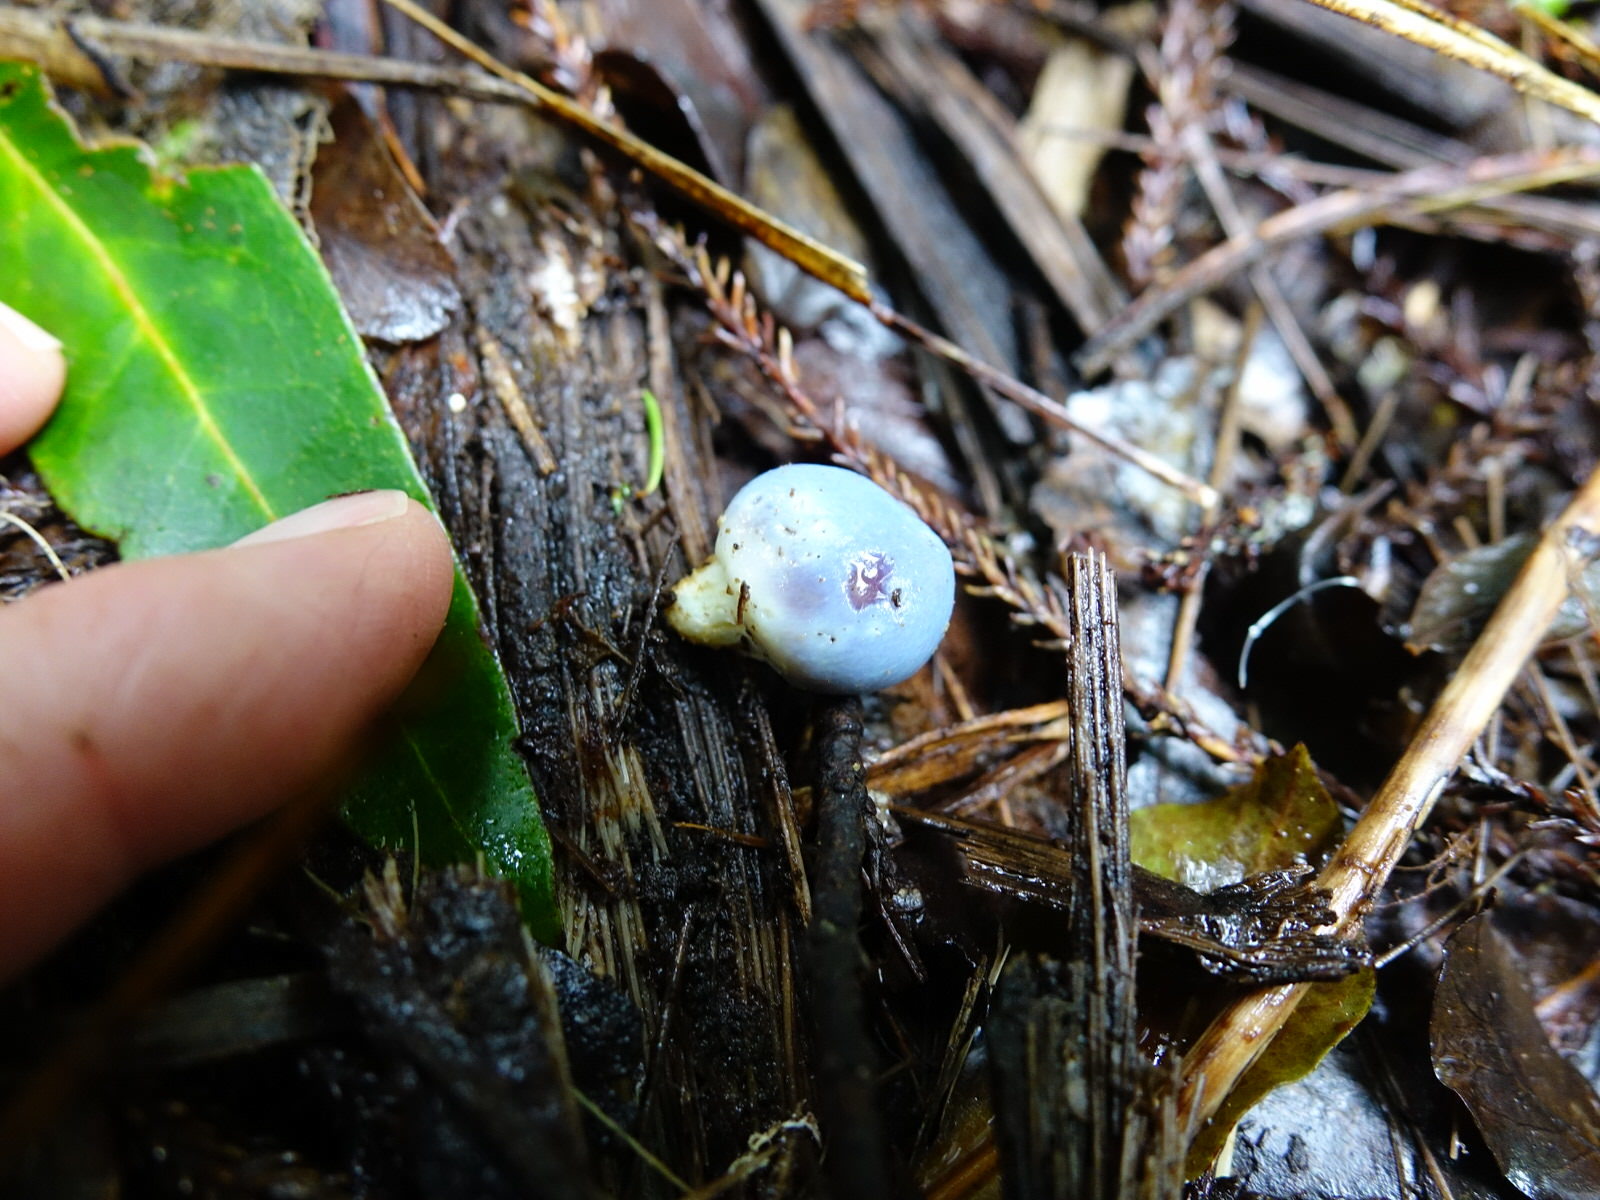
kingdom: Fungi
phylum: Basidiomycota
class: Agaricomycetes
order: Agaricales
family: Agaricaceae
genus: Clavogaster
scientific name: Clavogaster virescens
